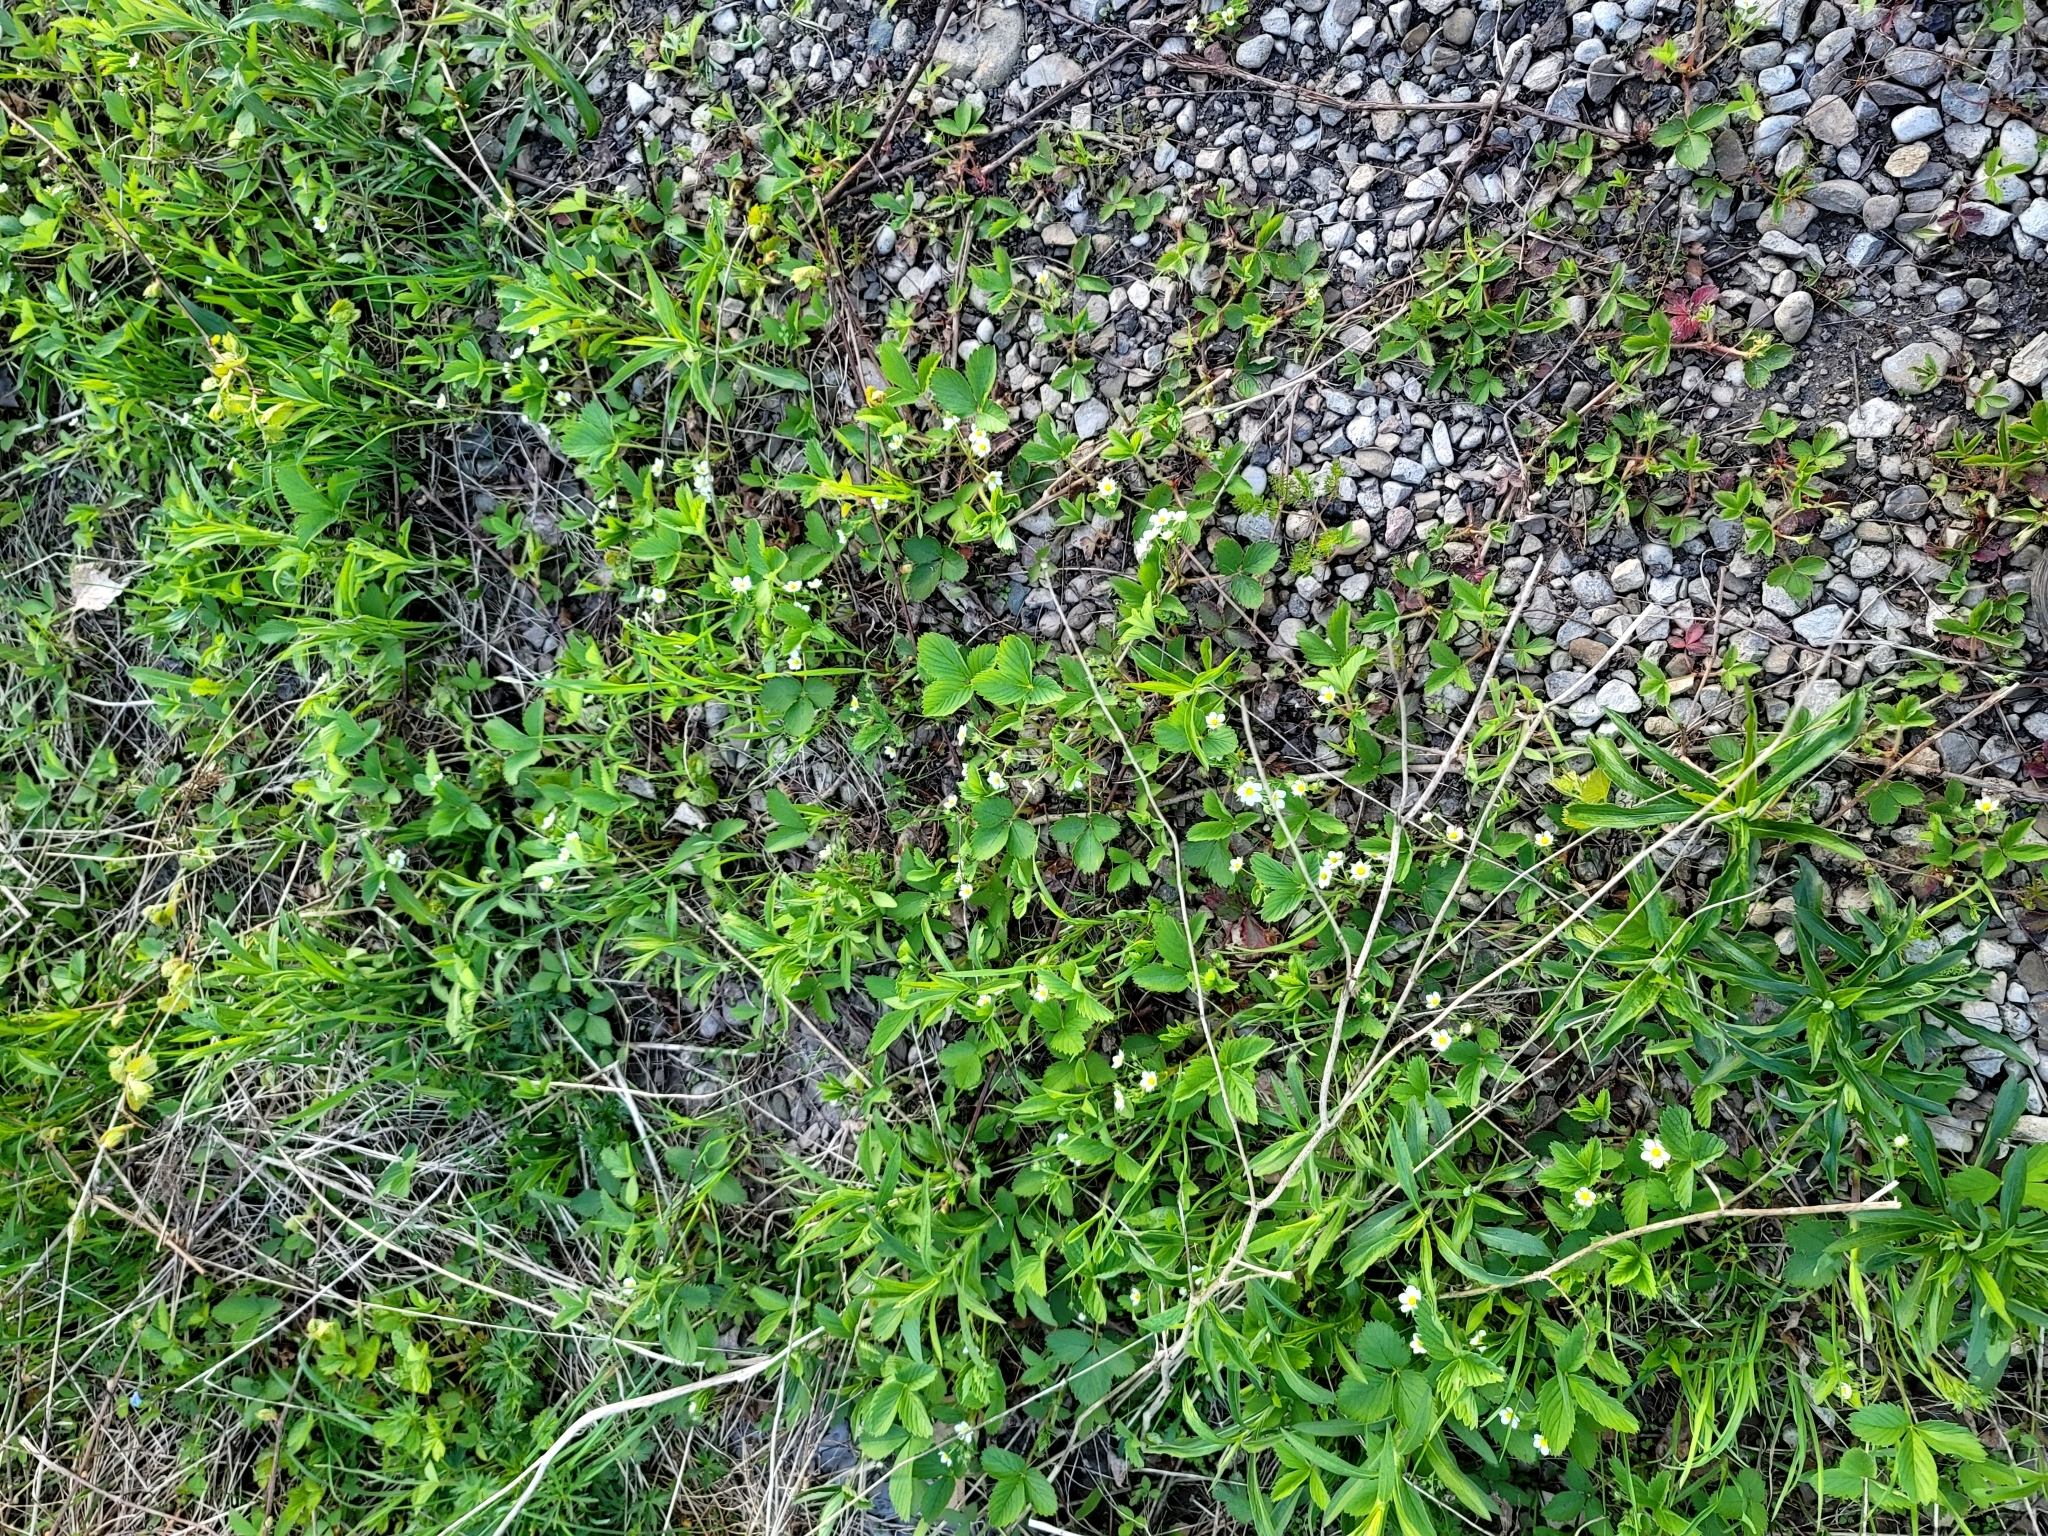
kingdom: Plantae
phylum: Tracheophyta
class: Magnoliopsida
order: Rosales
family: Rosaceae
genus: Fragaria
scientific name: Fragaria virginiana
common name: Thickleaved wild strawberry
